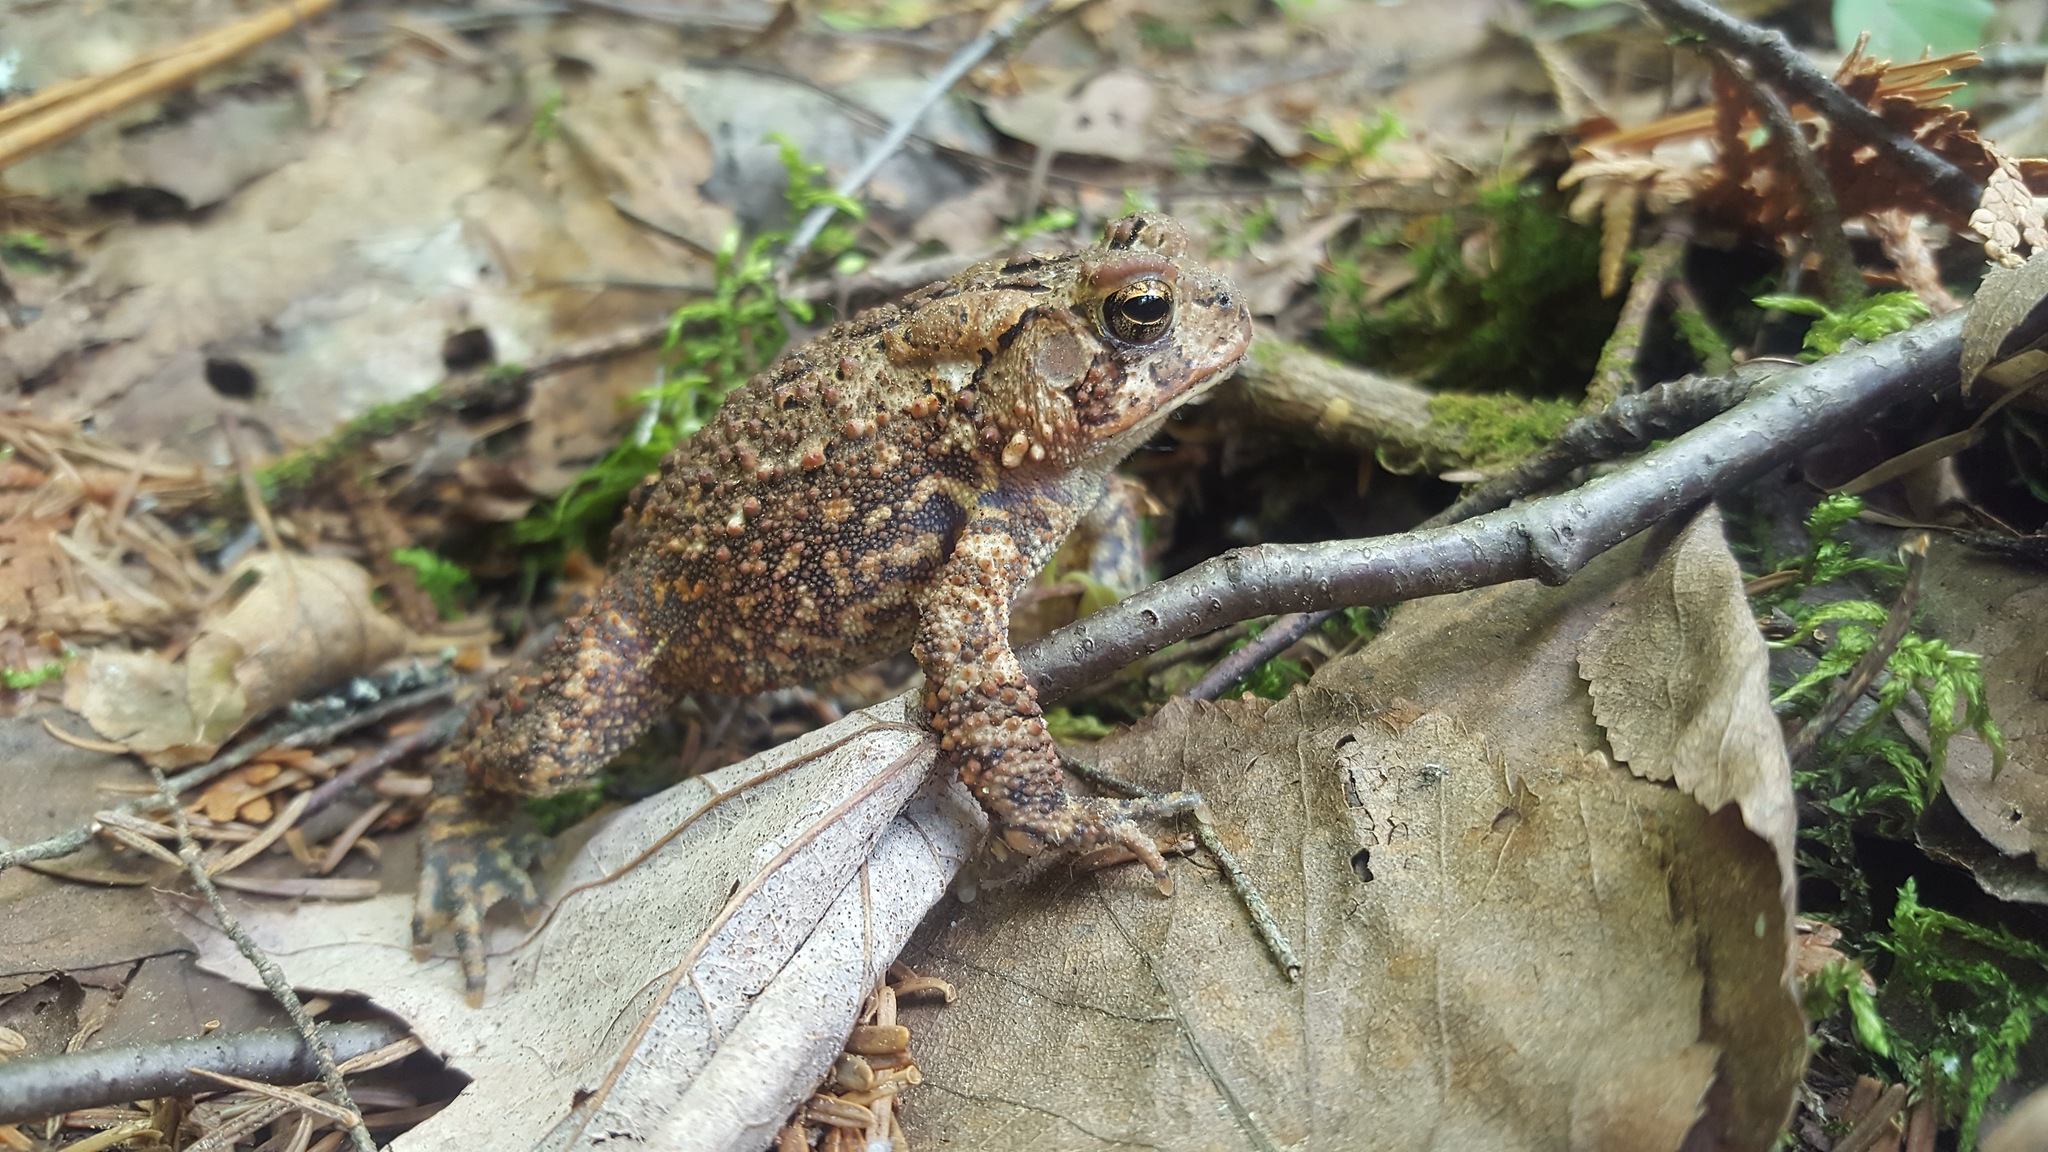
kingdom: Animalia
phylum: Chordata
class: Amphibia
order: Anura
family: Bufonidae
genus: Anaxyrus
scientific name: Anaxyrus americanus
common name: American toad
